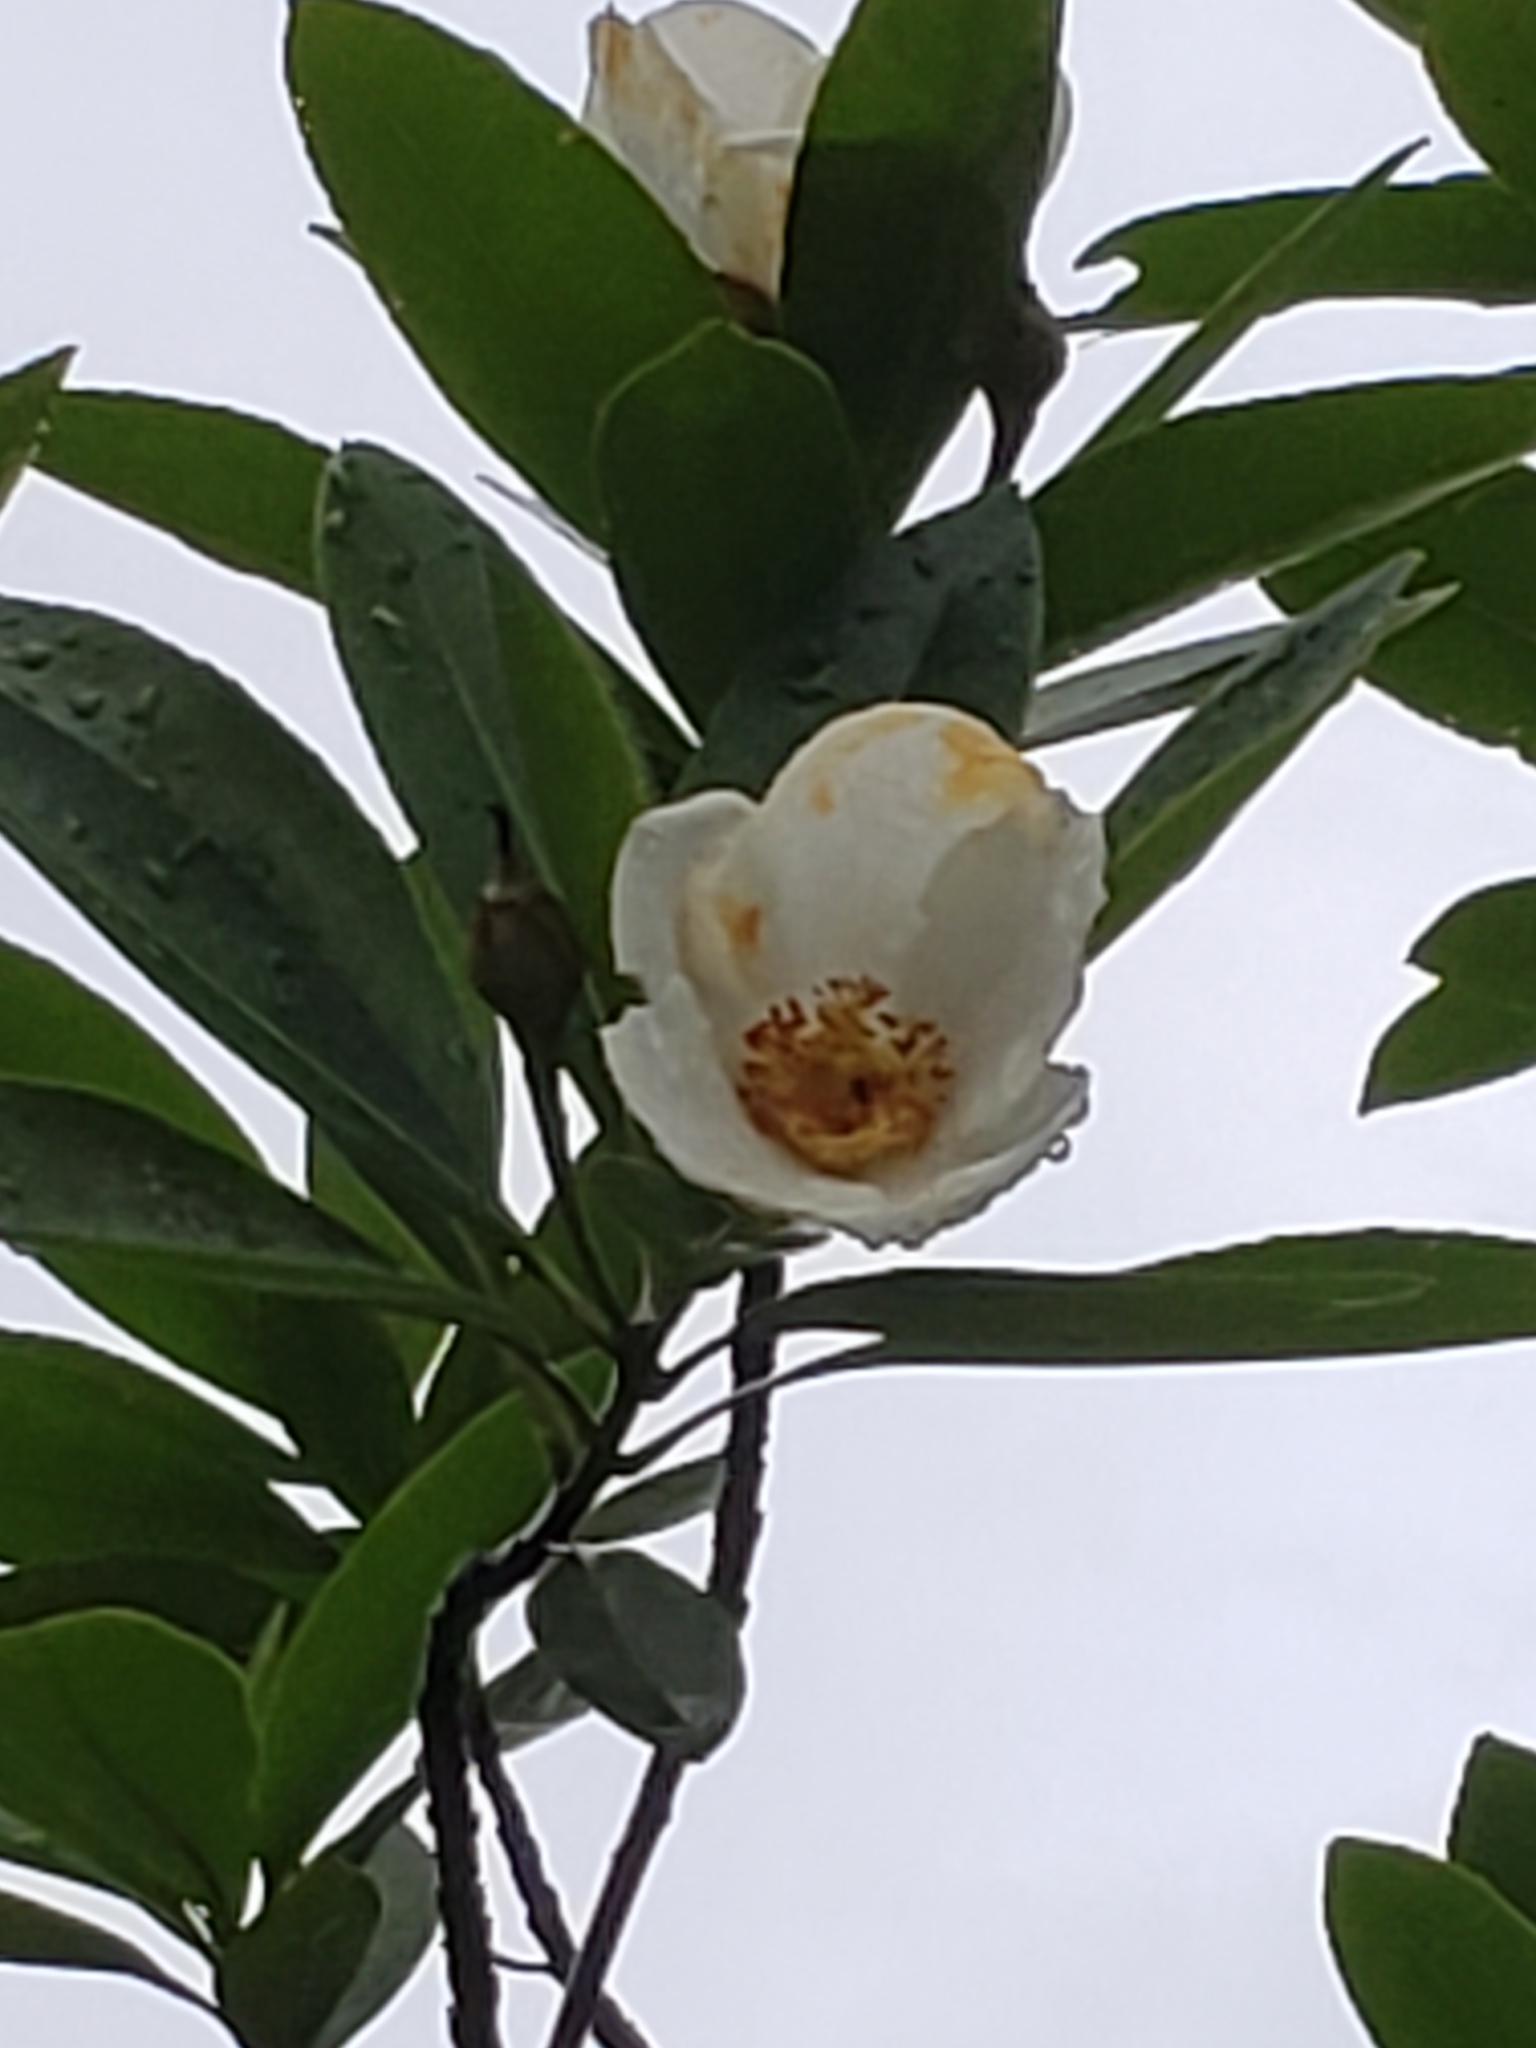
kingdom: Plantae
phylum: Tracheophyta
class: Magnoliopsida
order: Ericales
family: Theaceae
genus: Gordonia
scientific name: Gordonia lasianthus
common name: Loblolly bay
